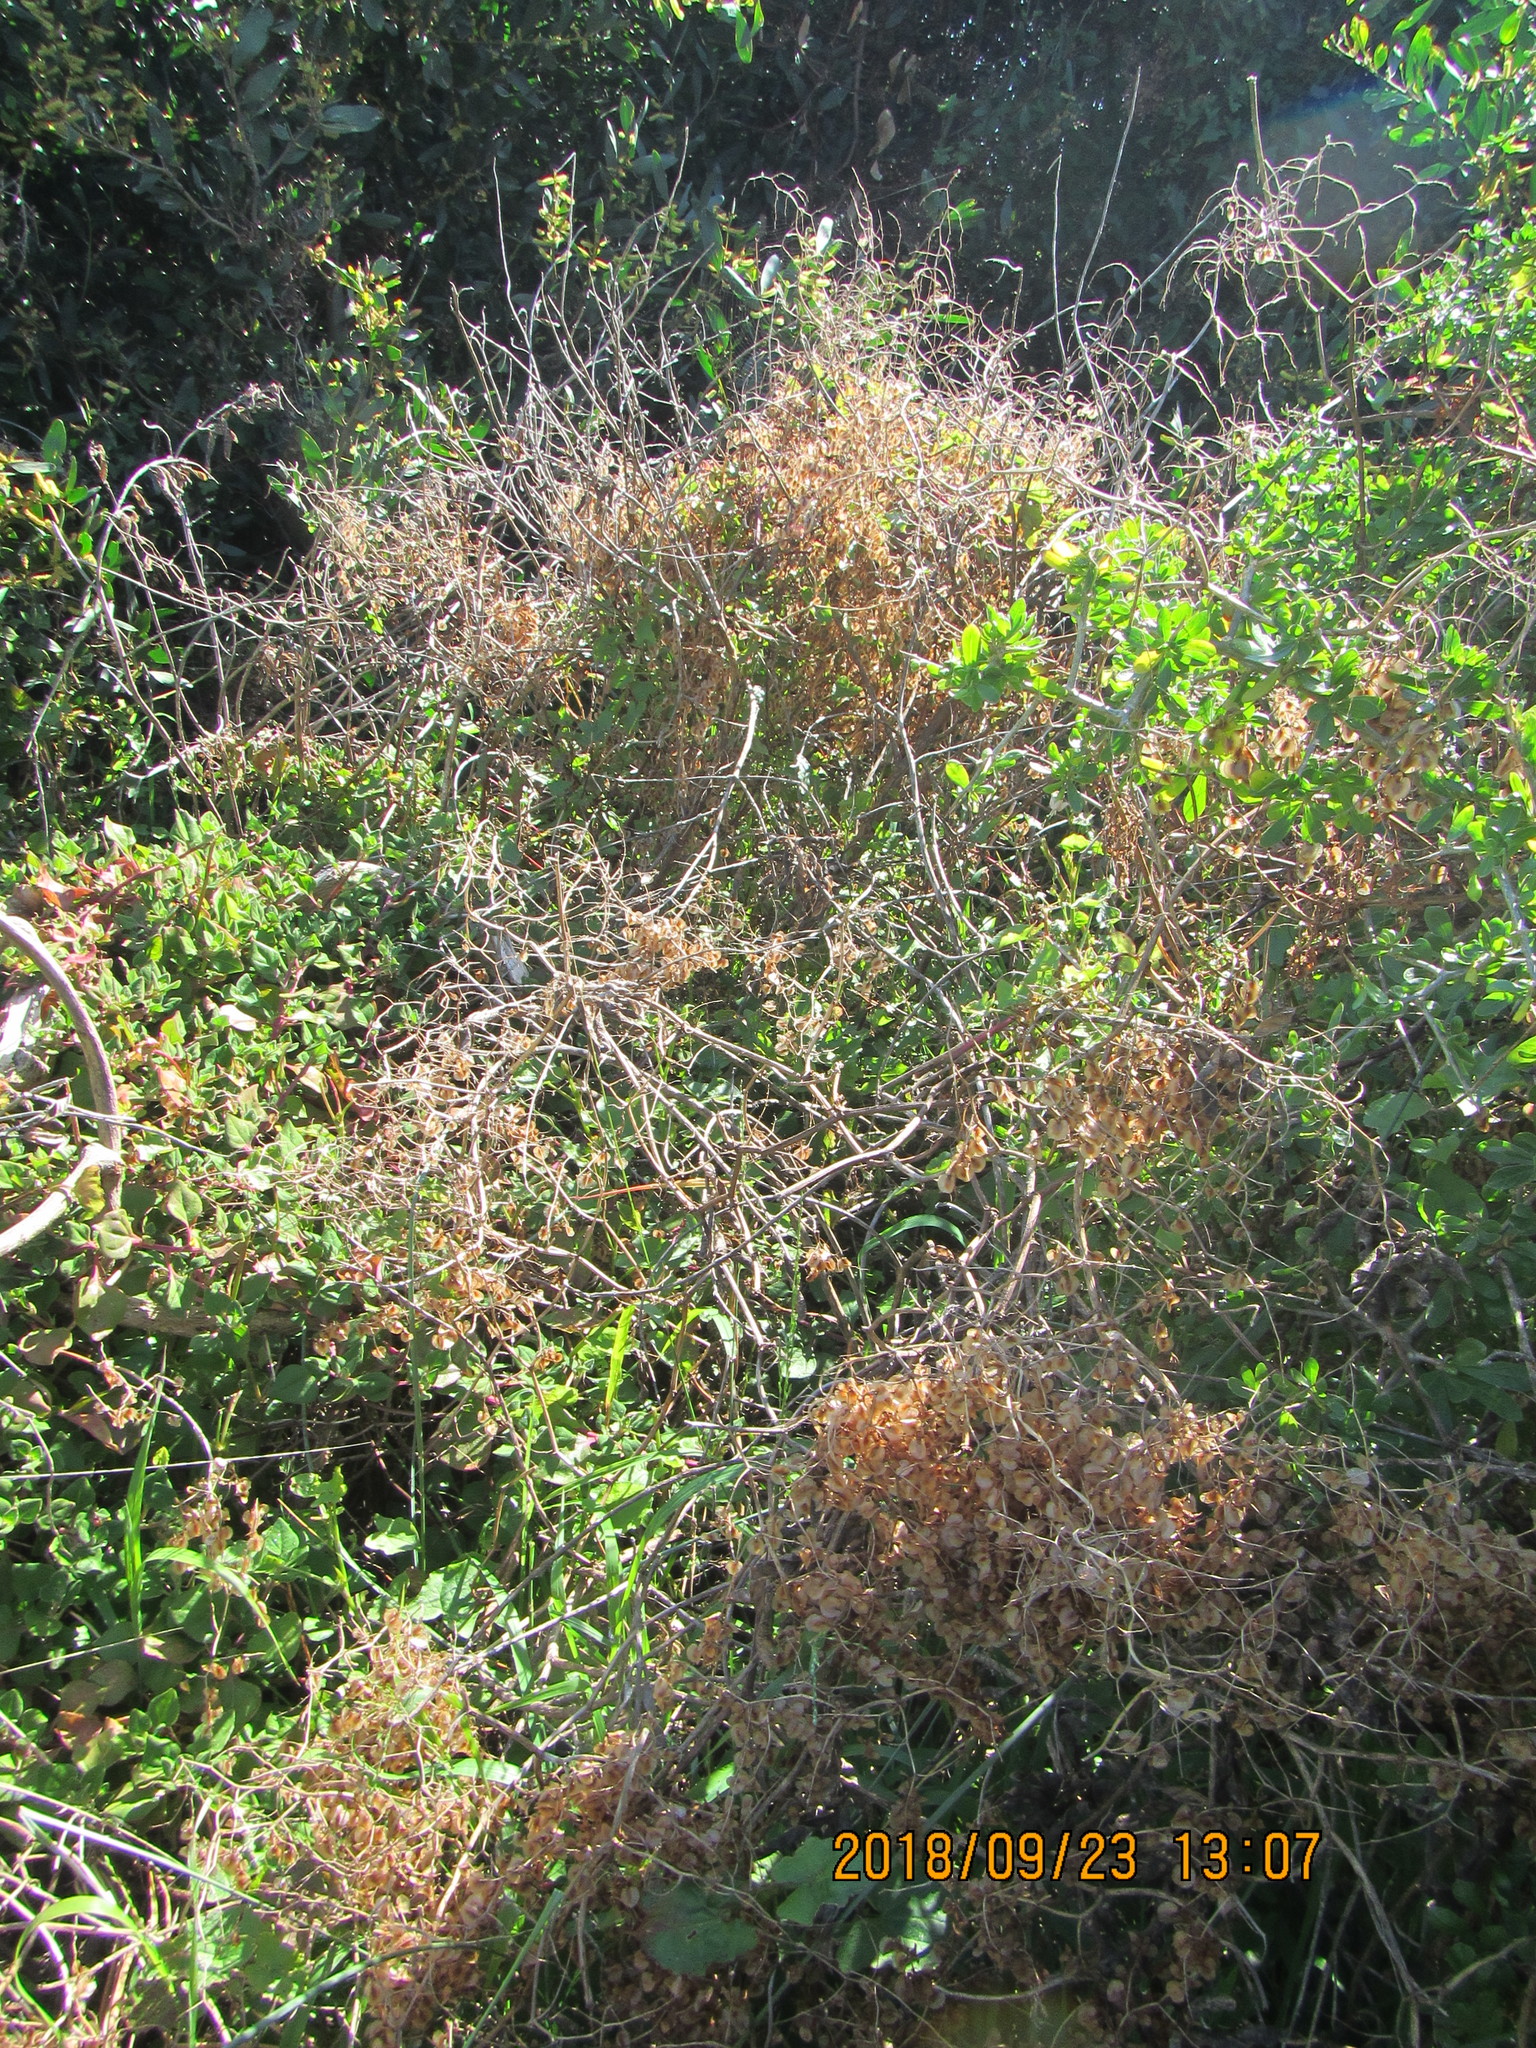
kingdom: Plantae
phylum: Tracheophyta
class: Magnoliopsida
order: Caryophyllales
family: Polygonaceae
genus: Rumex
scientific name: Rumex sagittatus
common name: Climbing dock
